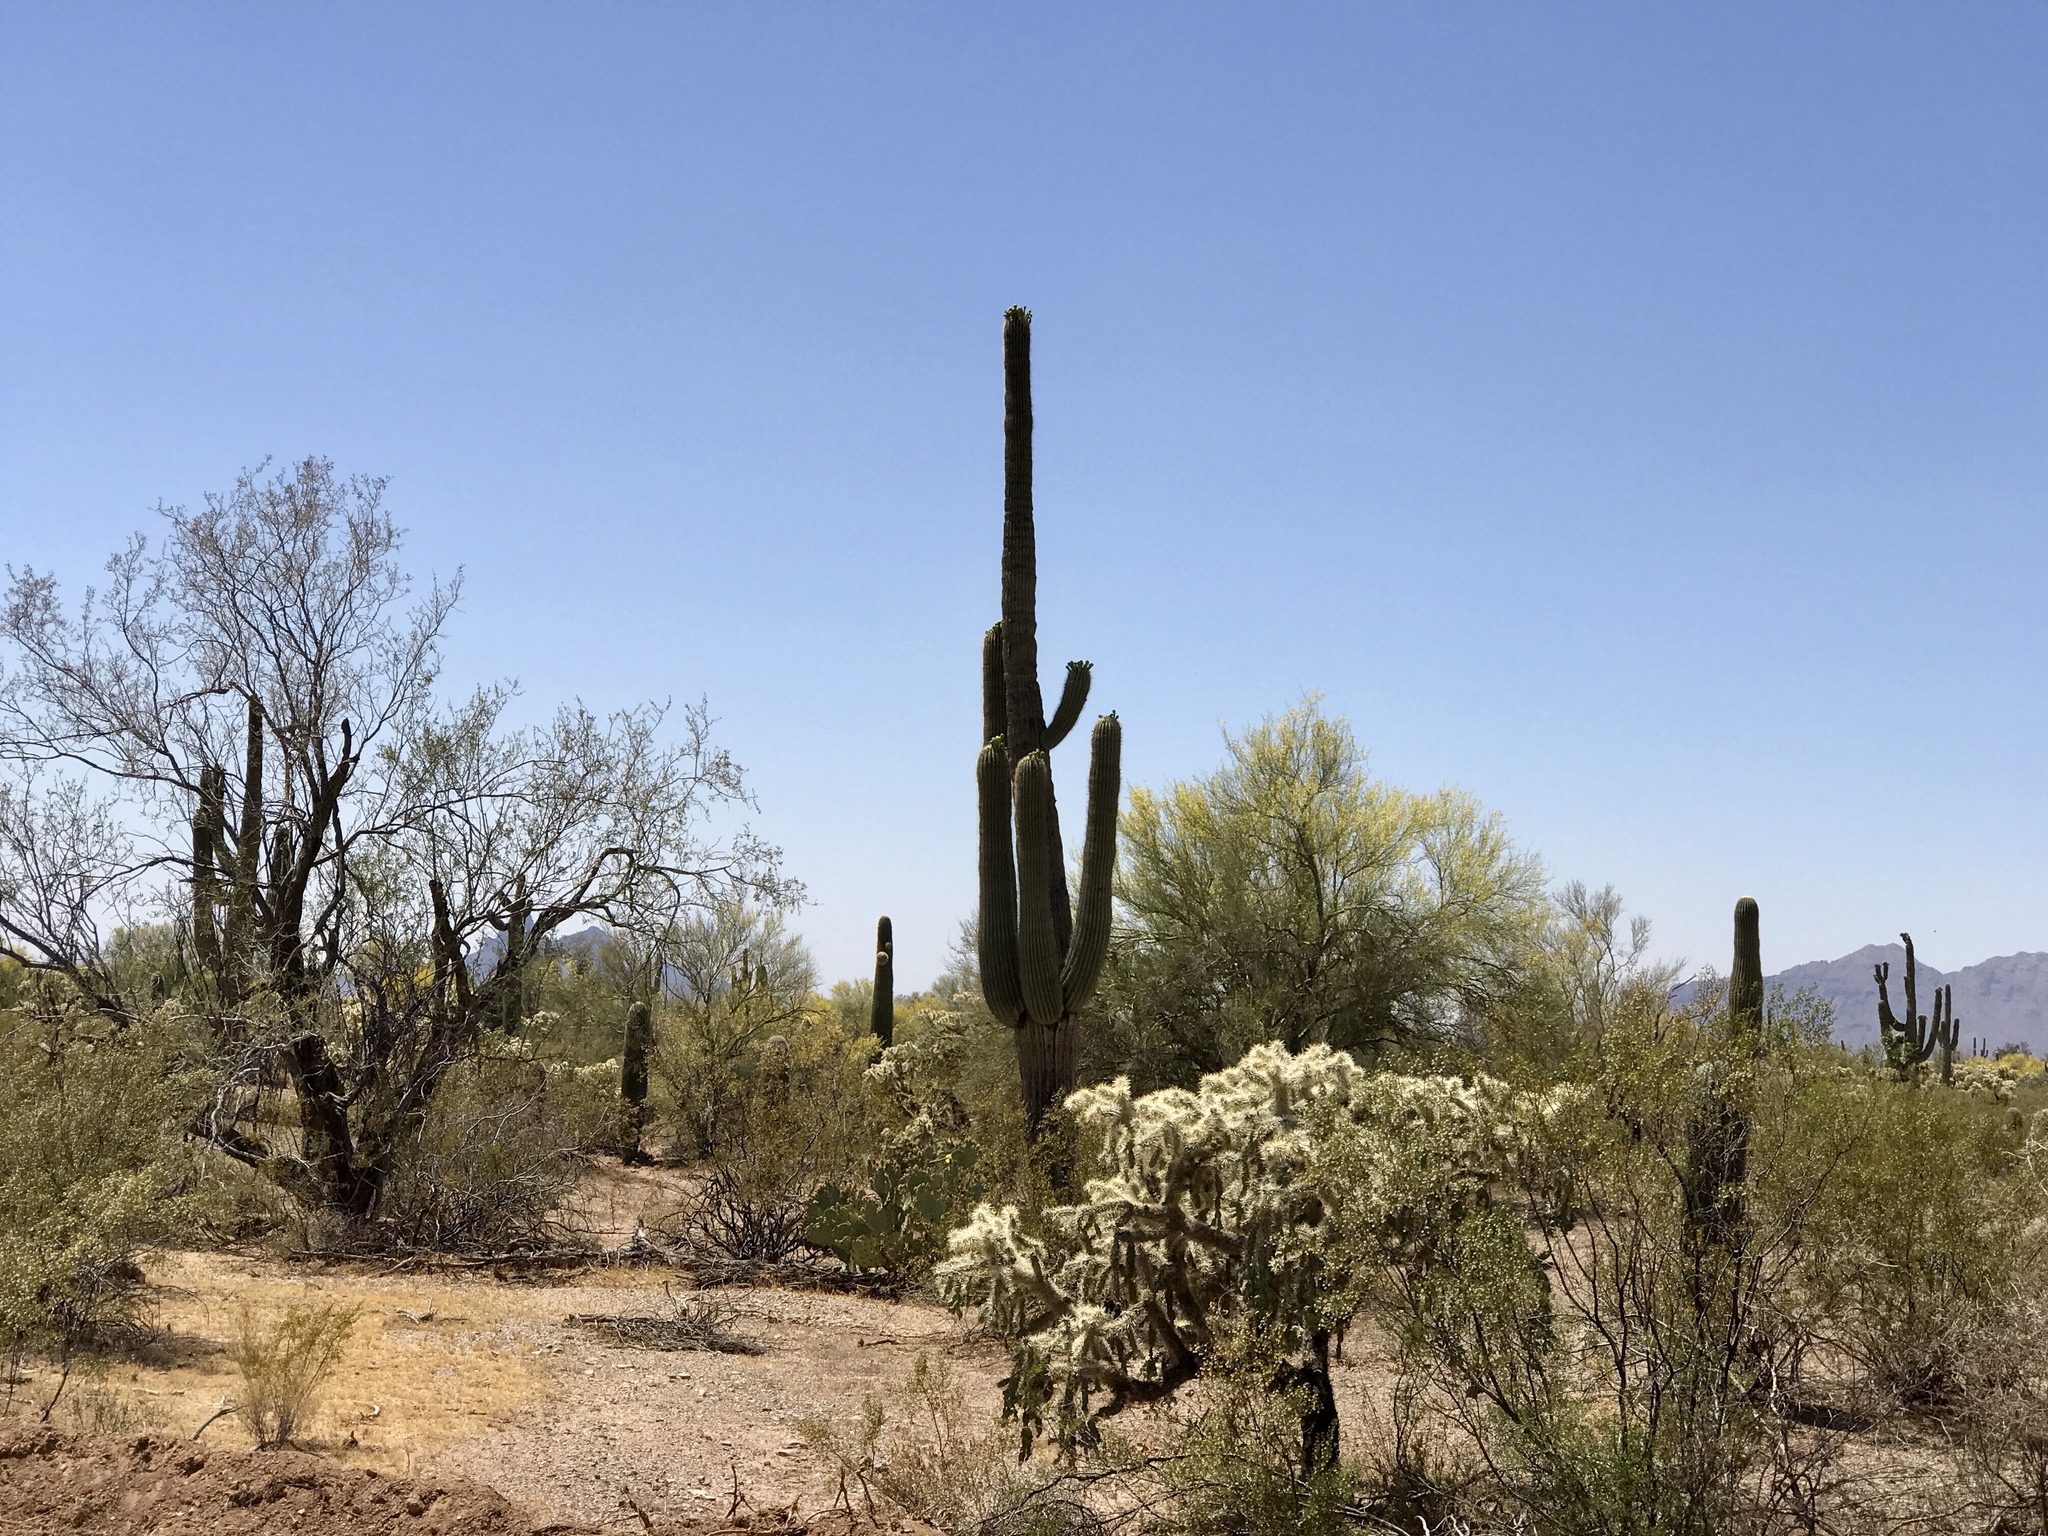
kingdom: Plantae
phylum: Tracheophyta
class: Magnoliopsida
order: Caryophyllales
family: Cactaceae
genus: Carnegiea
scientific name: Carnegiea gigantea
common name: Saguaro
